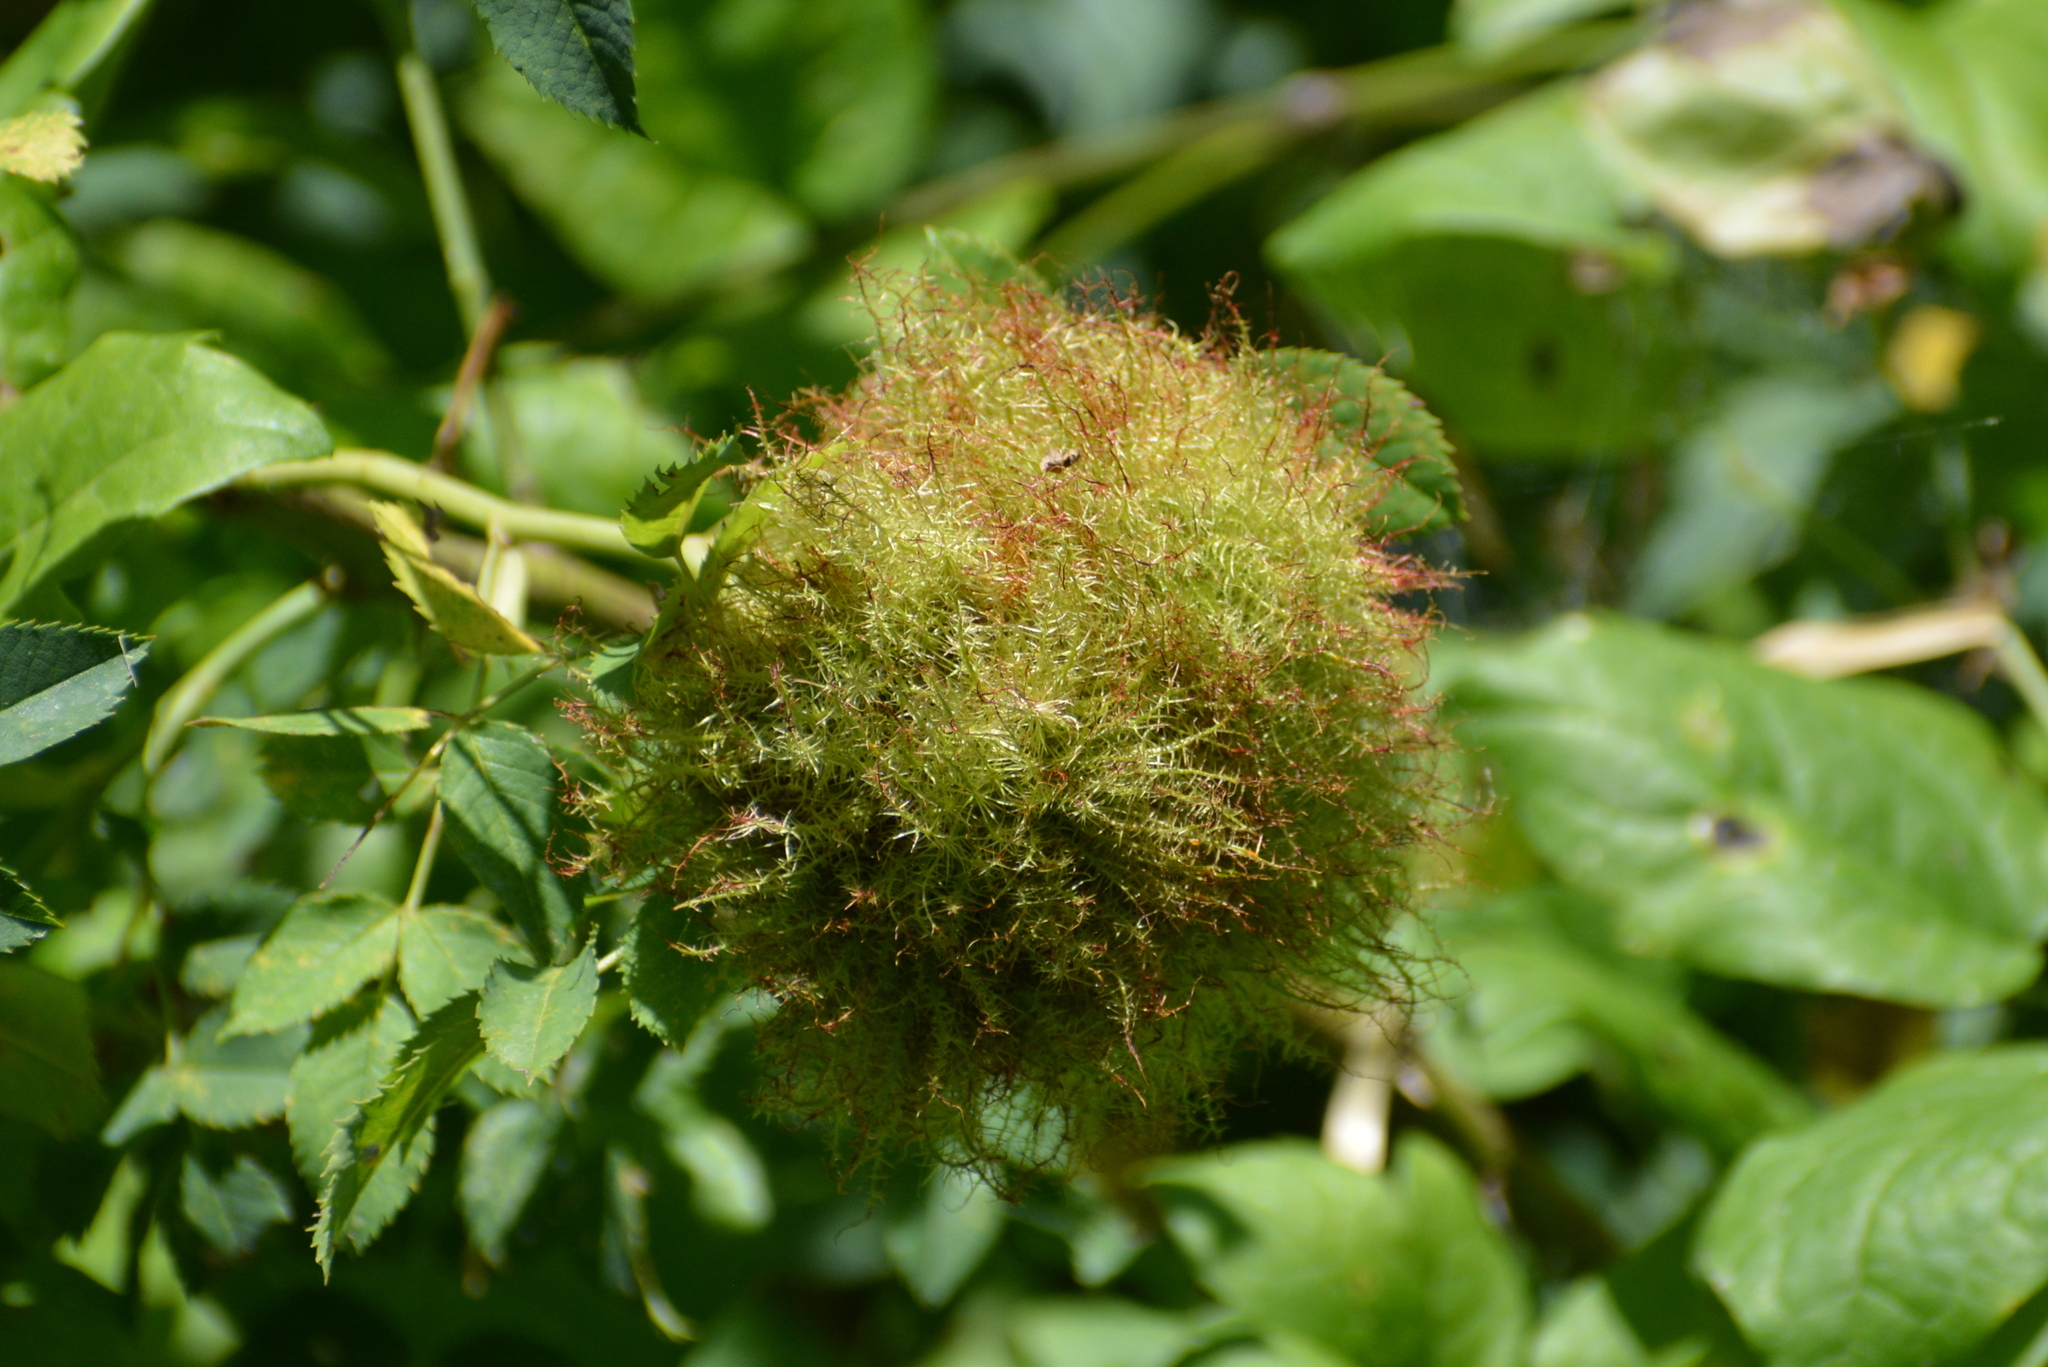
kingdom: Animalia
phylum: Arthropoda
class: Insecta
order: Hymenoptera
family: Cynipidae
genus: Diplolepis
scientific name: Diplolepis rosae
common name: Bedeguar gall
